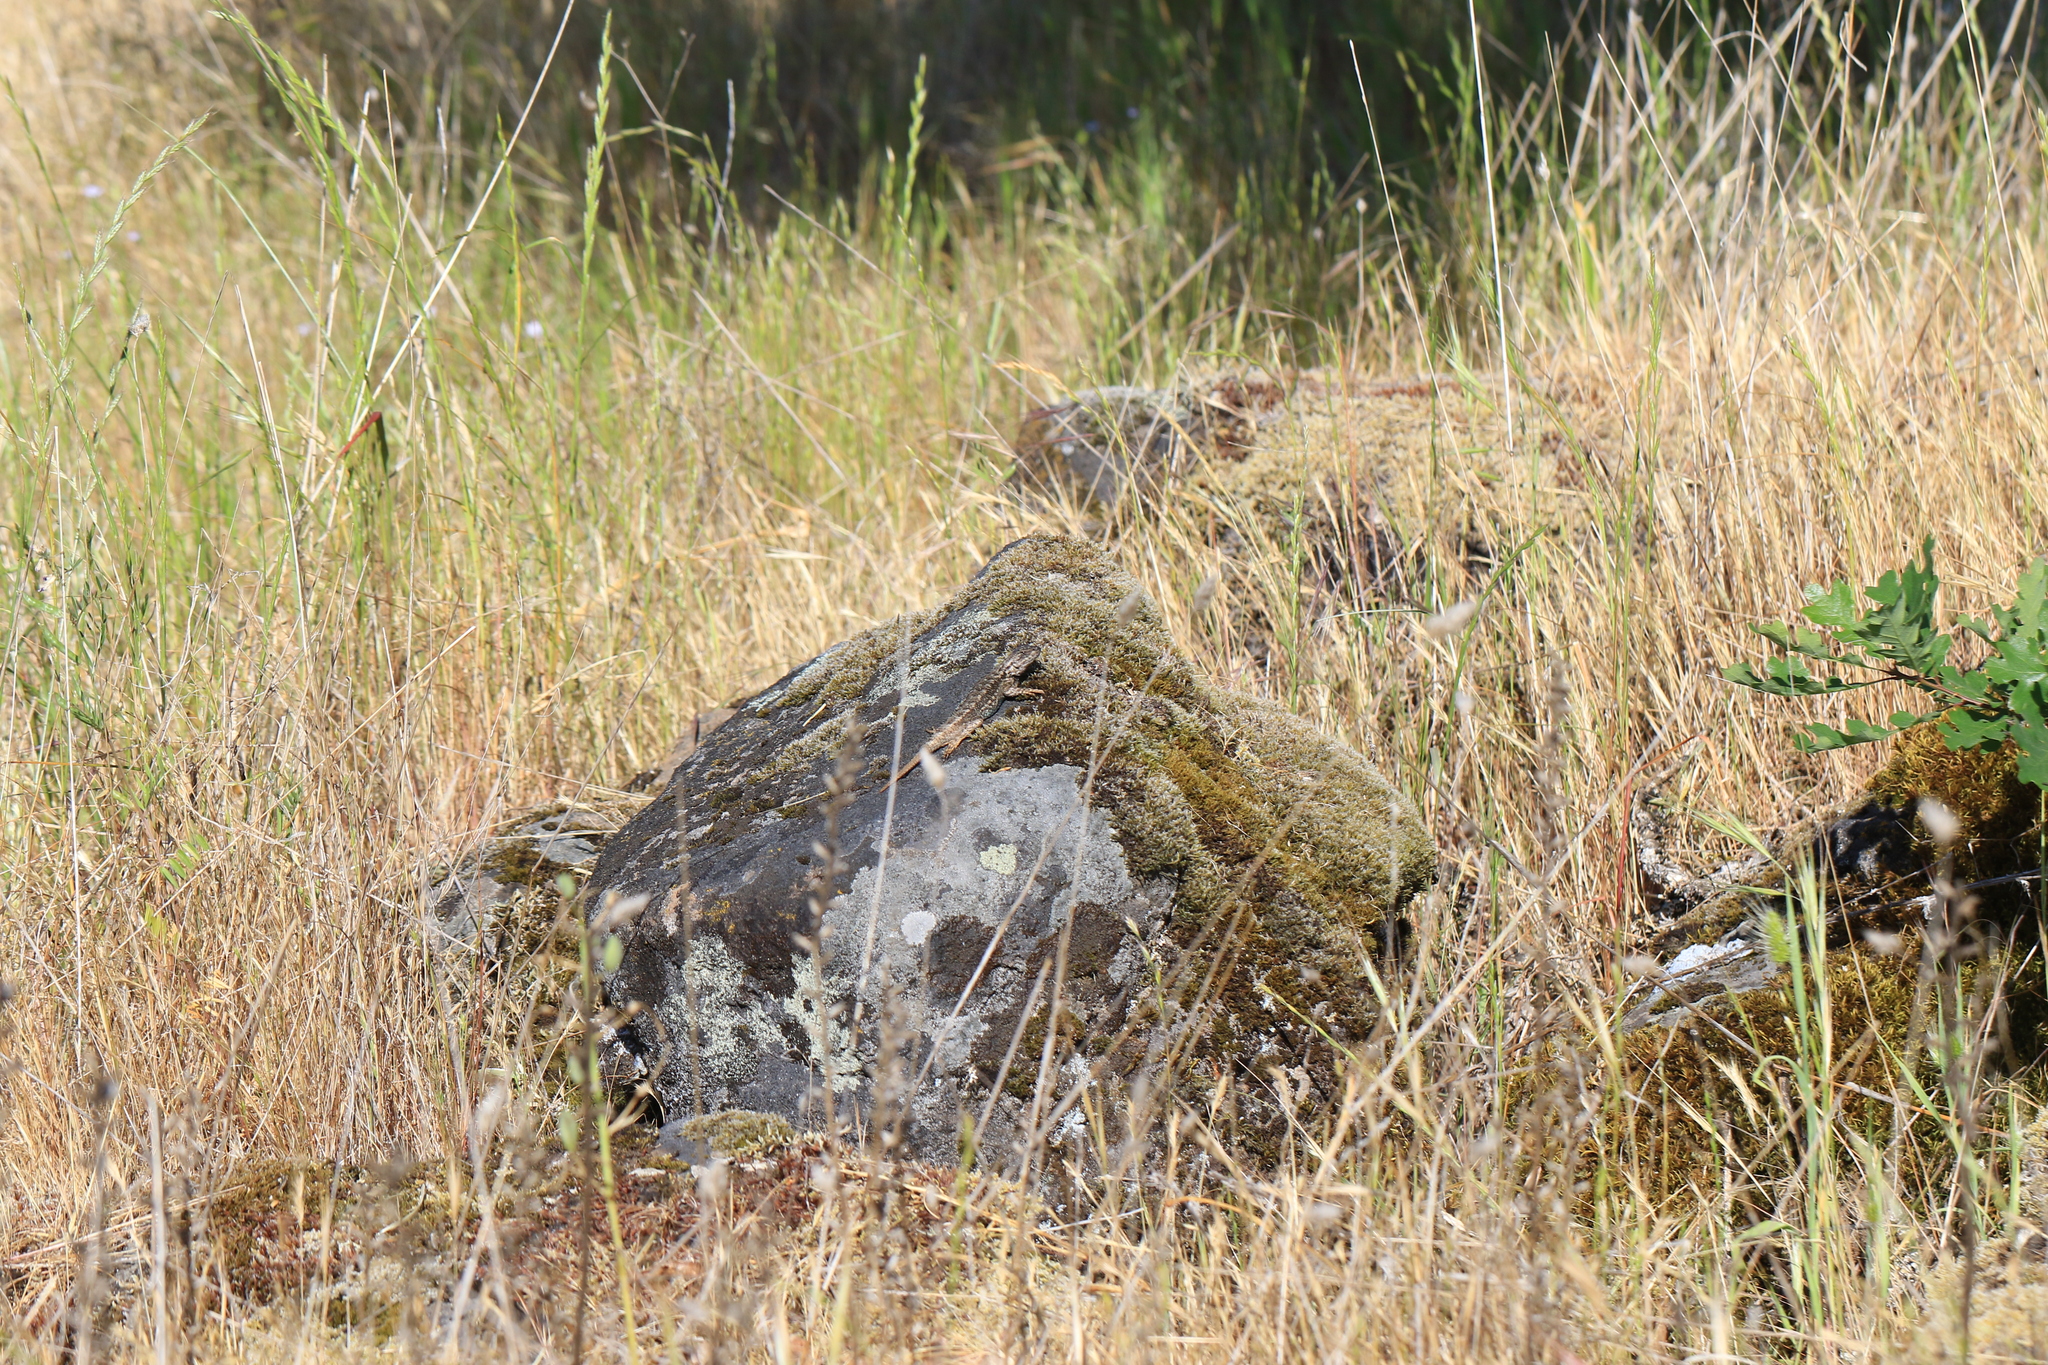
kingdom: Animalia
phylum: Chordata
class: Squamata
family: Phrynosomatidae
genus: Sceloporus
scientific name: Sceloporus occidentalis
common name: Western fence lizard
